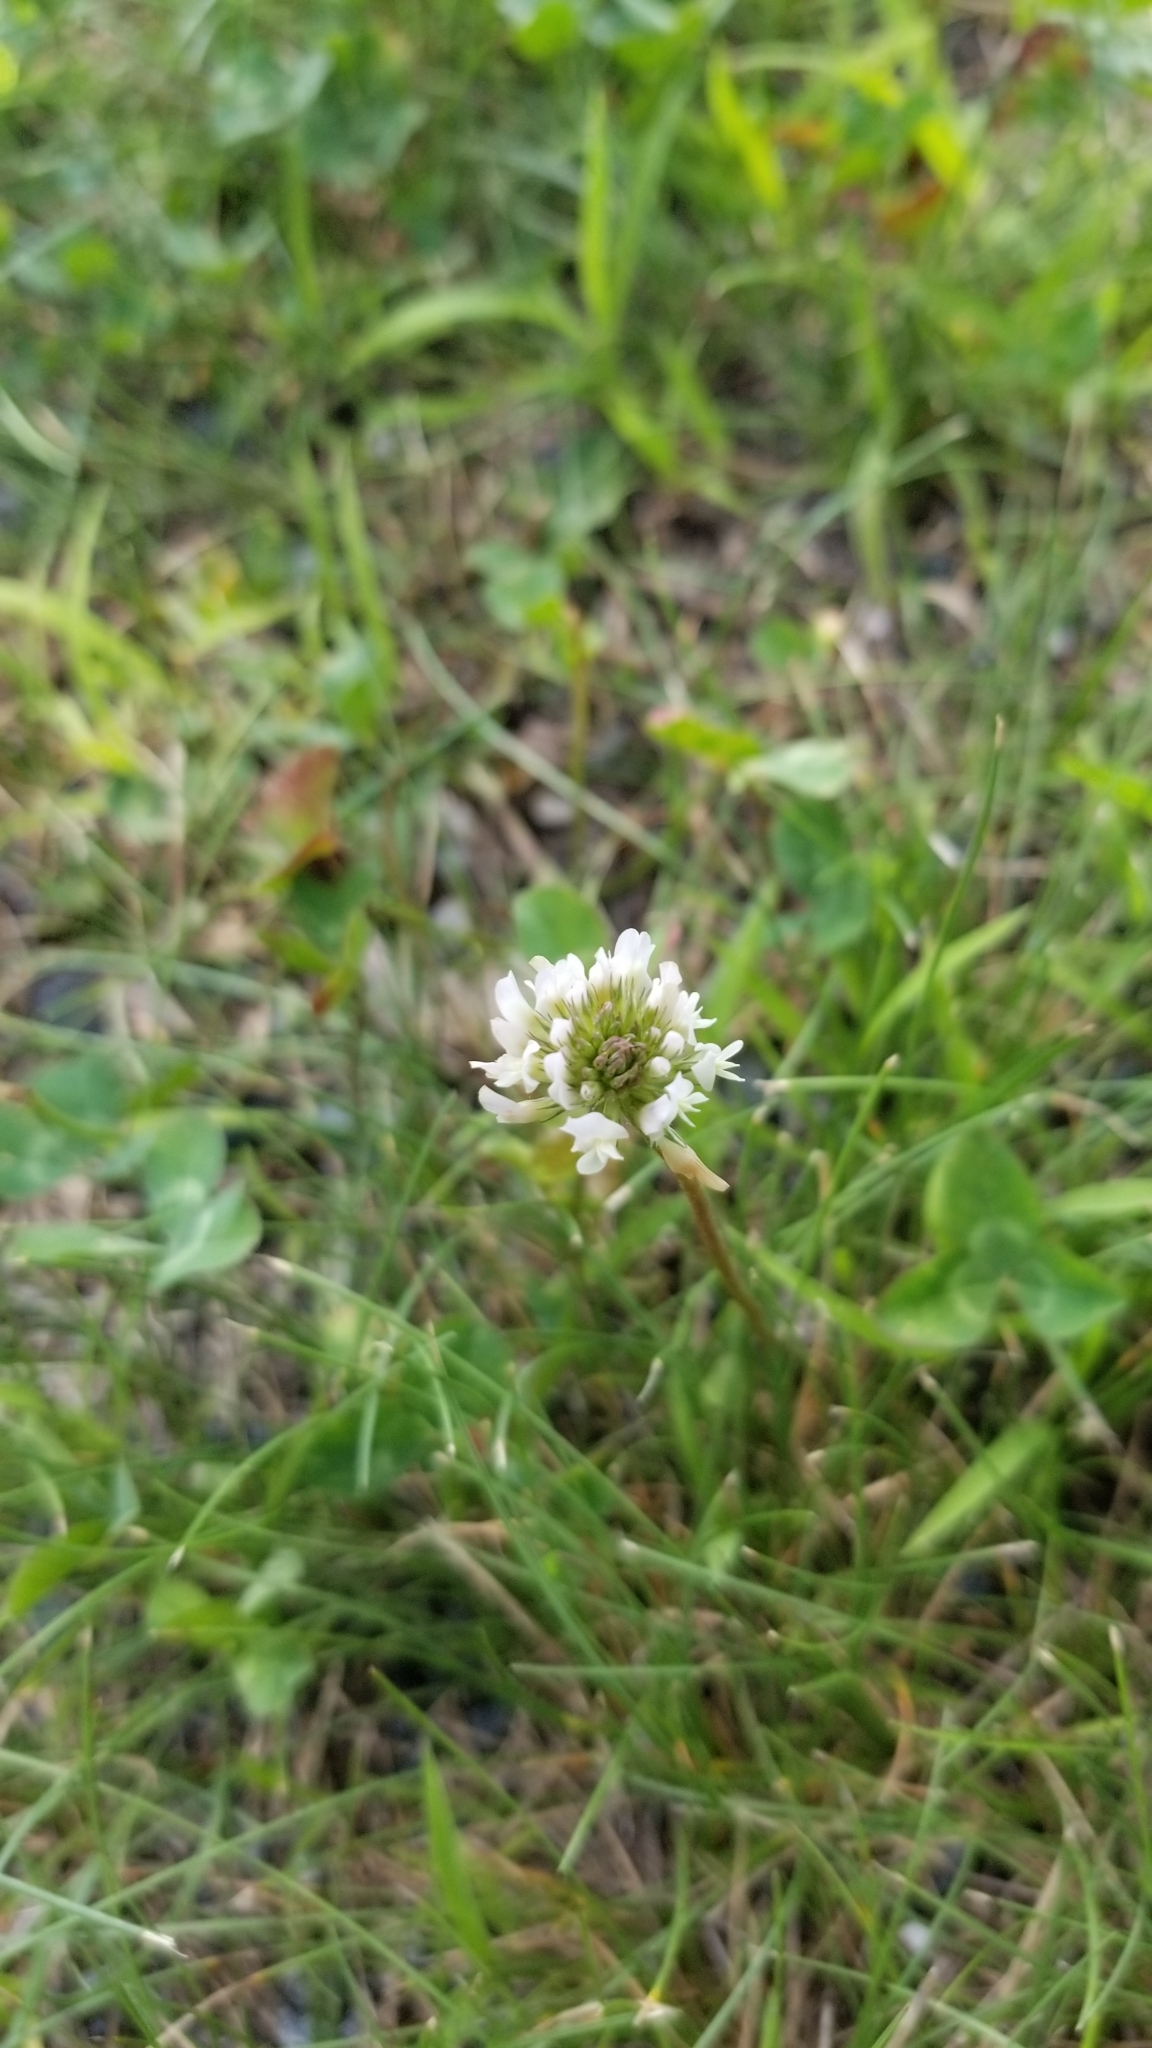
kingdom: Plantae
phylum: Tracheophyta
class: Magnoliopsida
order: Fabales
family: Fabaceae
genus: Trifolium
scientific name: Trifolium repens
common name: White clover
